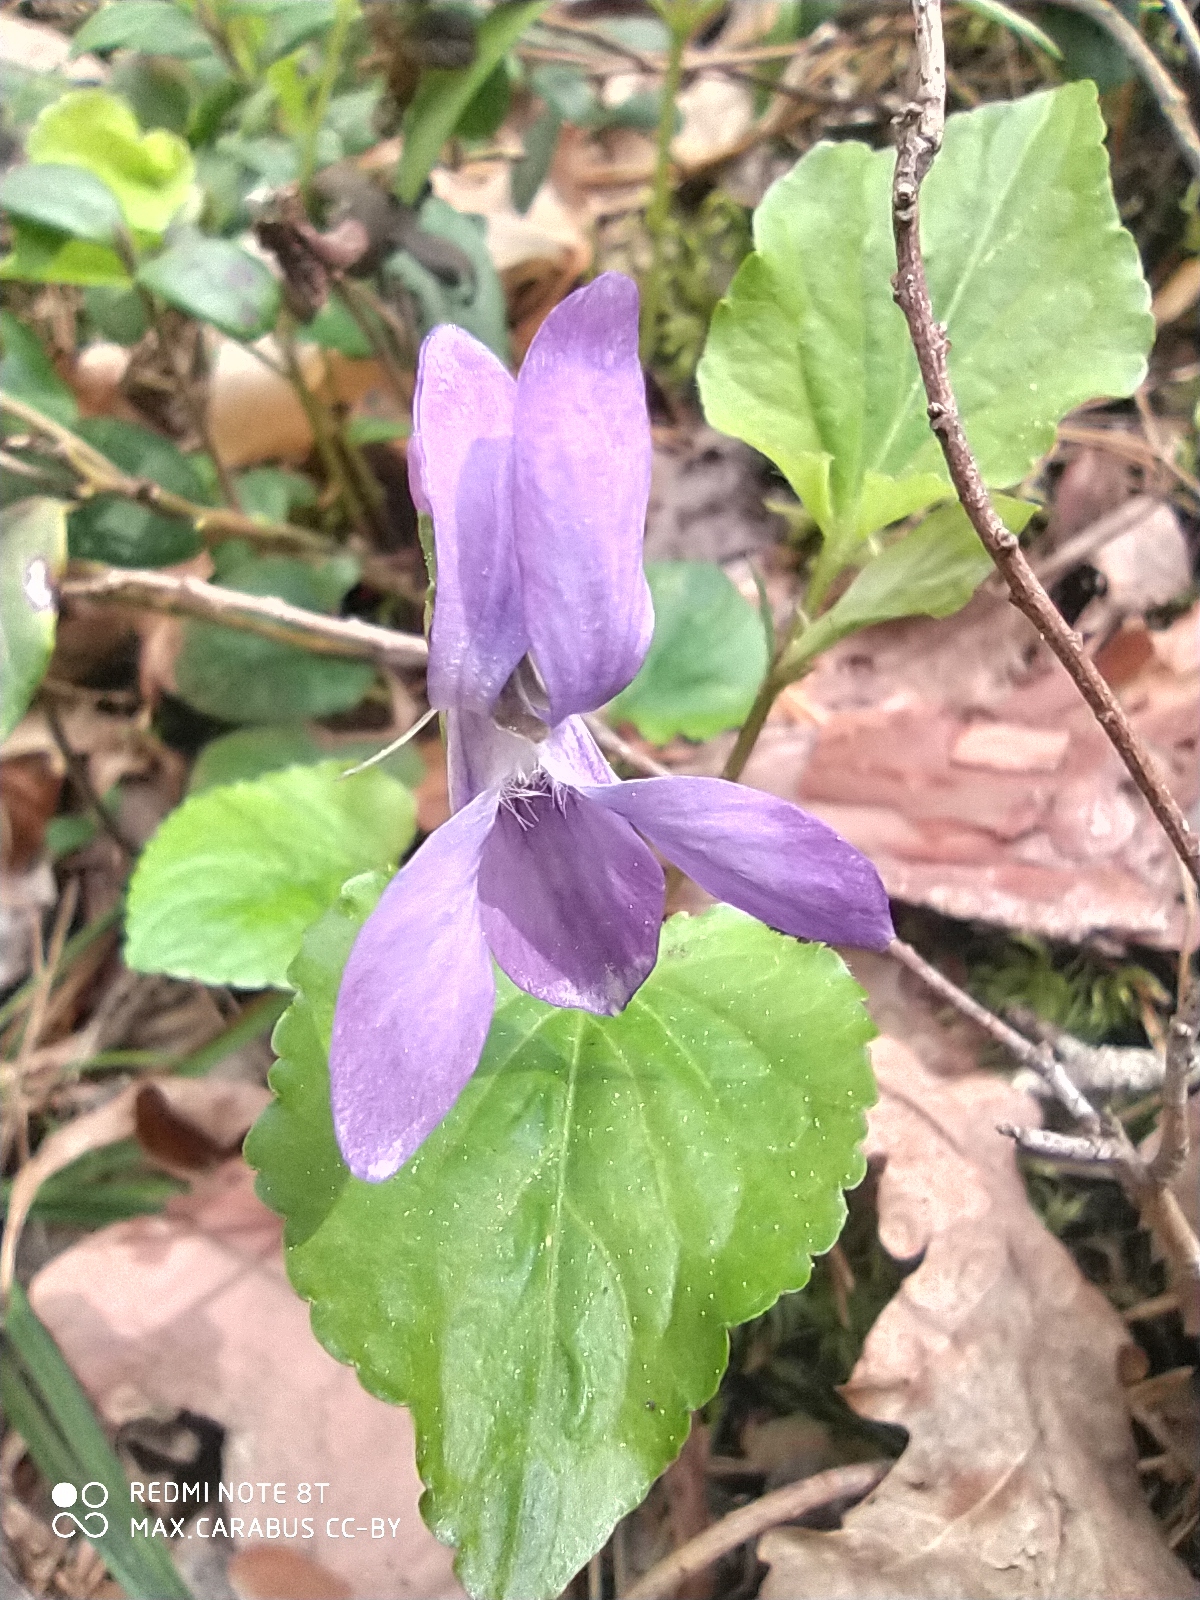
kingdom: Plantae
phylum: Tracheophyta
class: Magnoliopsida
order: Malpighiales
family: Violaceae
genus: Viola
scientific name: Viola riviniana
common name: Common dog-violet
